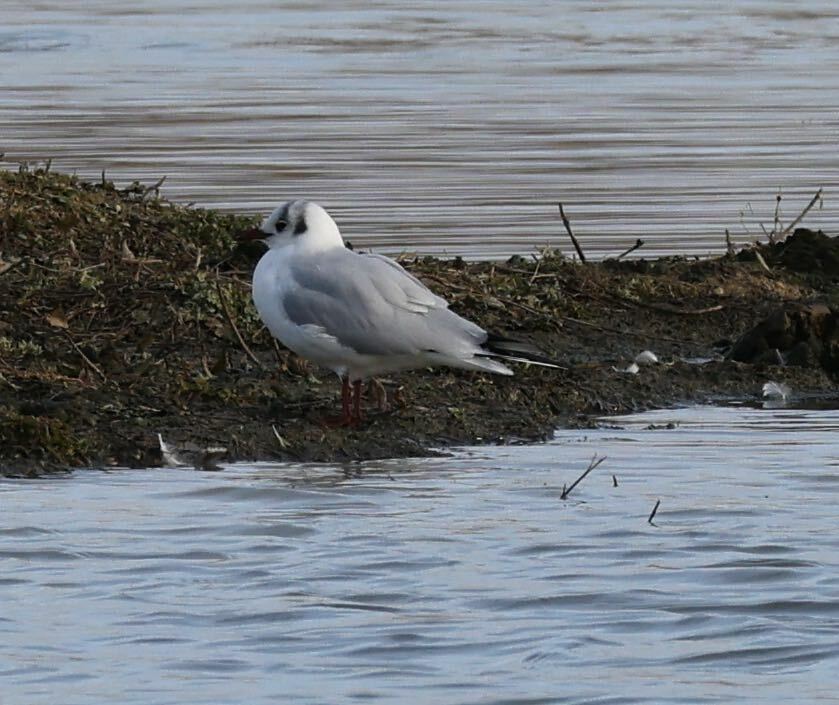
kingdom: Animalia
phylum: Chordata
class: Aves
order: Charadriiformes
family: Laridae
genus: Chroicocephalus
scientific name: Chroicocephalus ridibundus
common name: Black-headed gull
